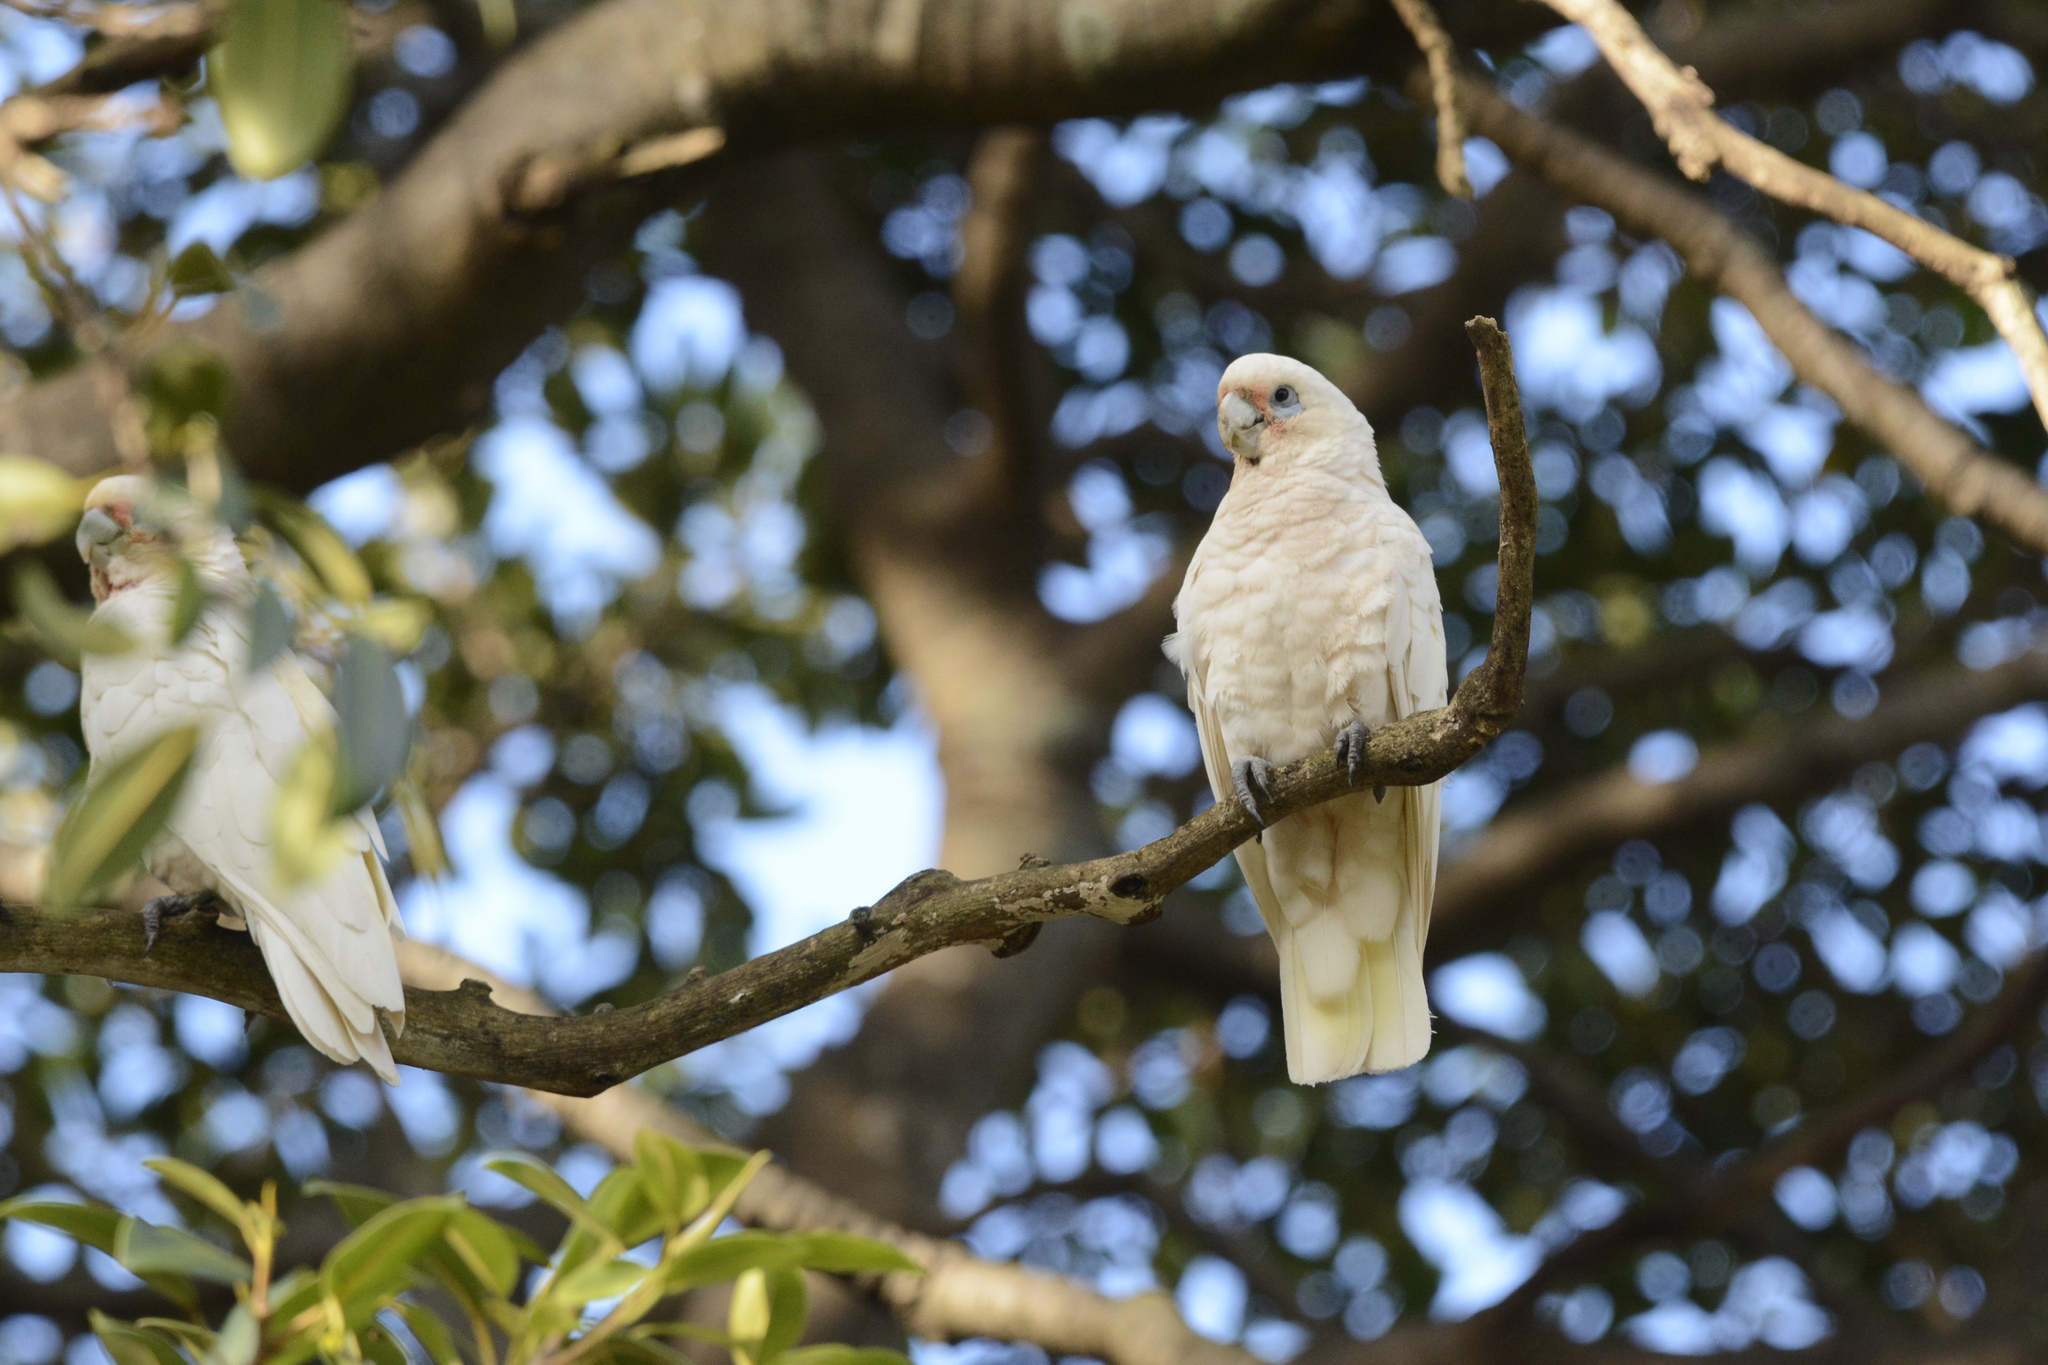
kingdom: Animalia
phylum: Chordata
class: Aves
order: Psittaciformes
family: Psittacidae
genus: Cacatua
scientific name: Cacatua sanguinea
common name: Little corella
